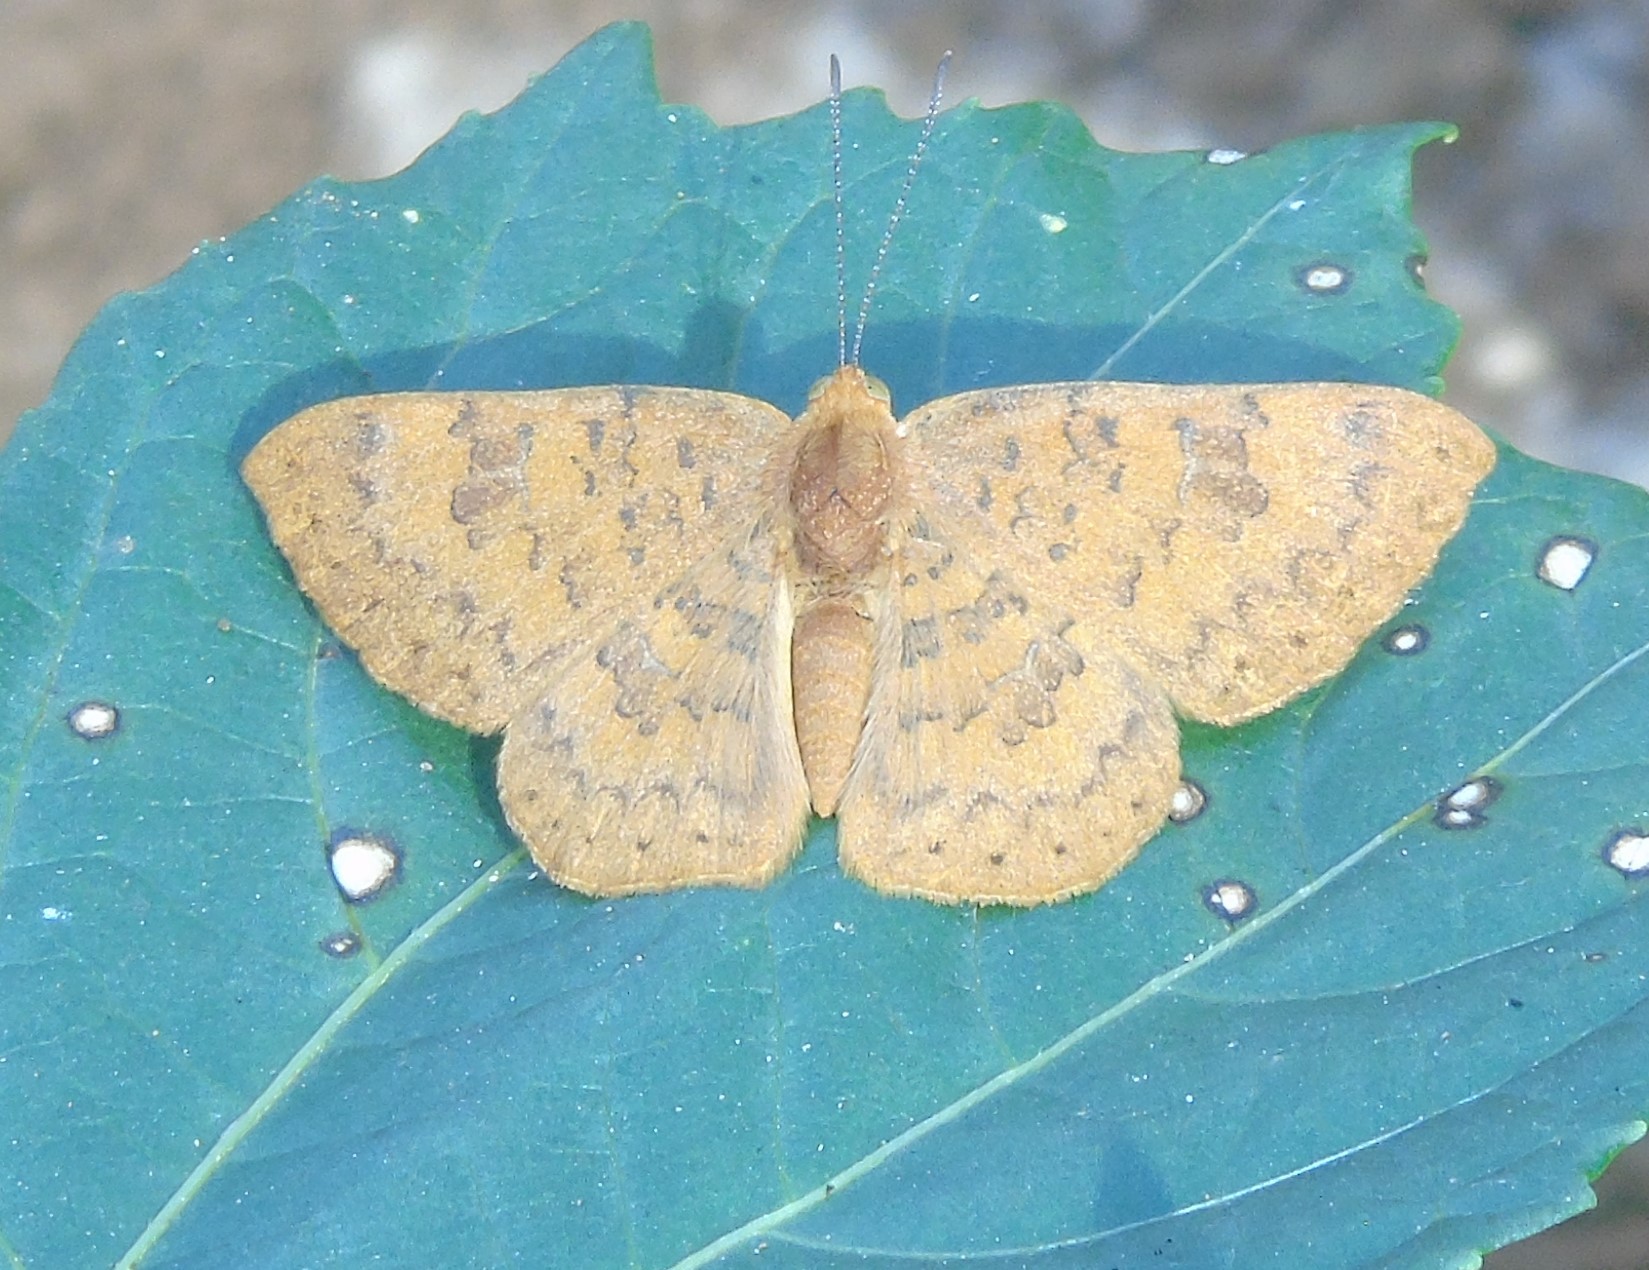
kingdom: Animalia
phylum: Arthropoda
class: Insecta
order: Lepidoptera
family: Lycaenidae
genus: Emesis
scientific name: Emesis vulpina
